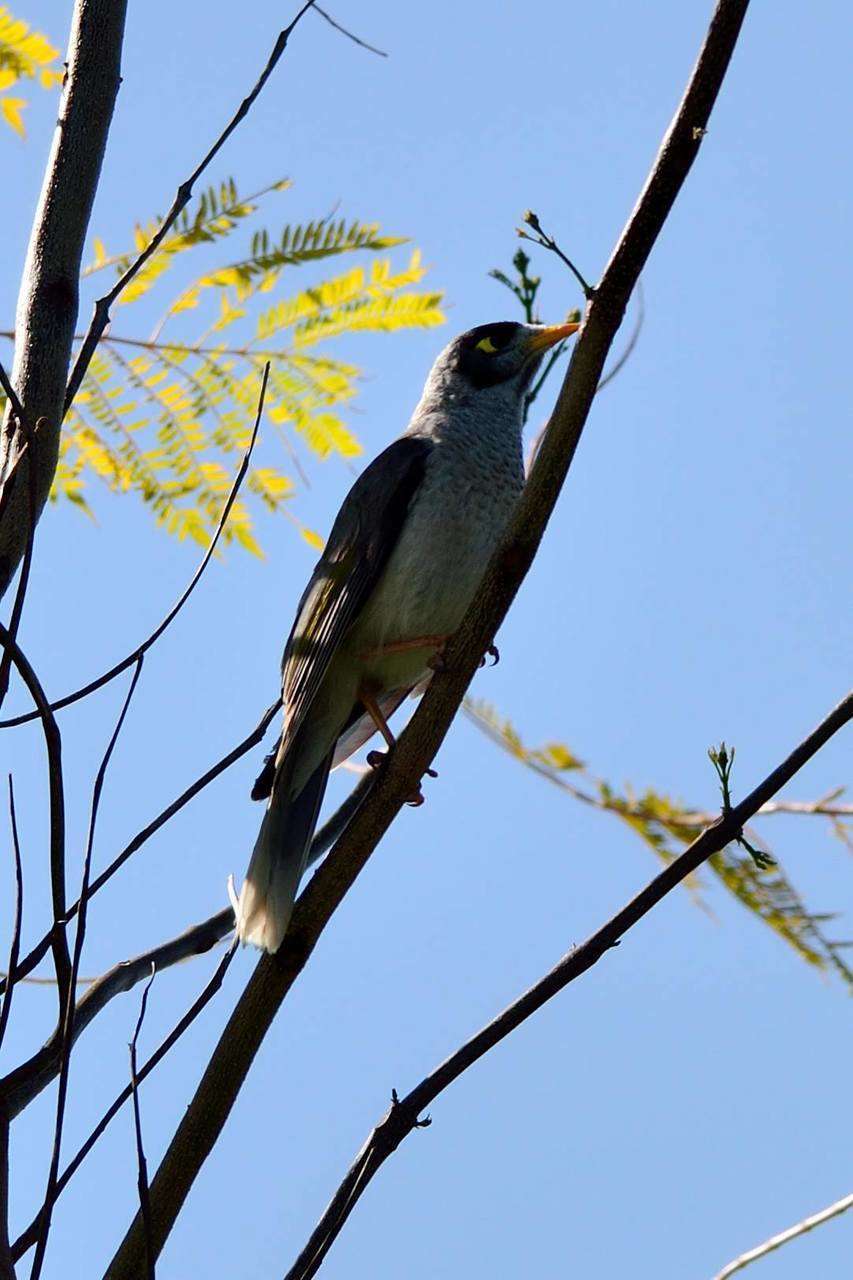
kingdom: Animalia
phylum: Chordata
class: Aves
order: Passeriformes
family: Meliphagidae
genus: Manorina
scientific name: Manorina melanocephala
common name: Noisy miner
